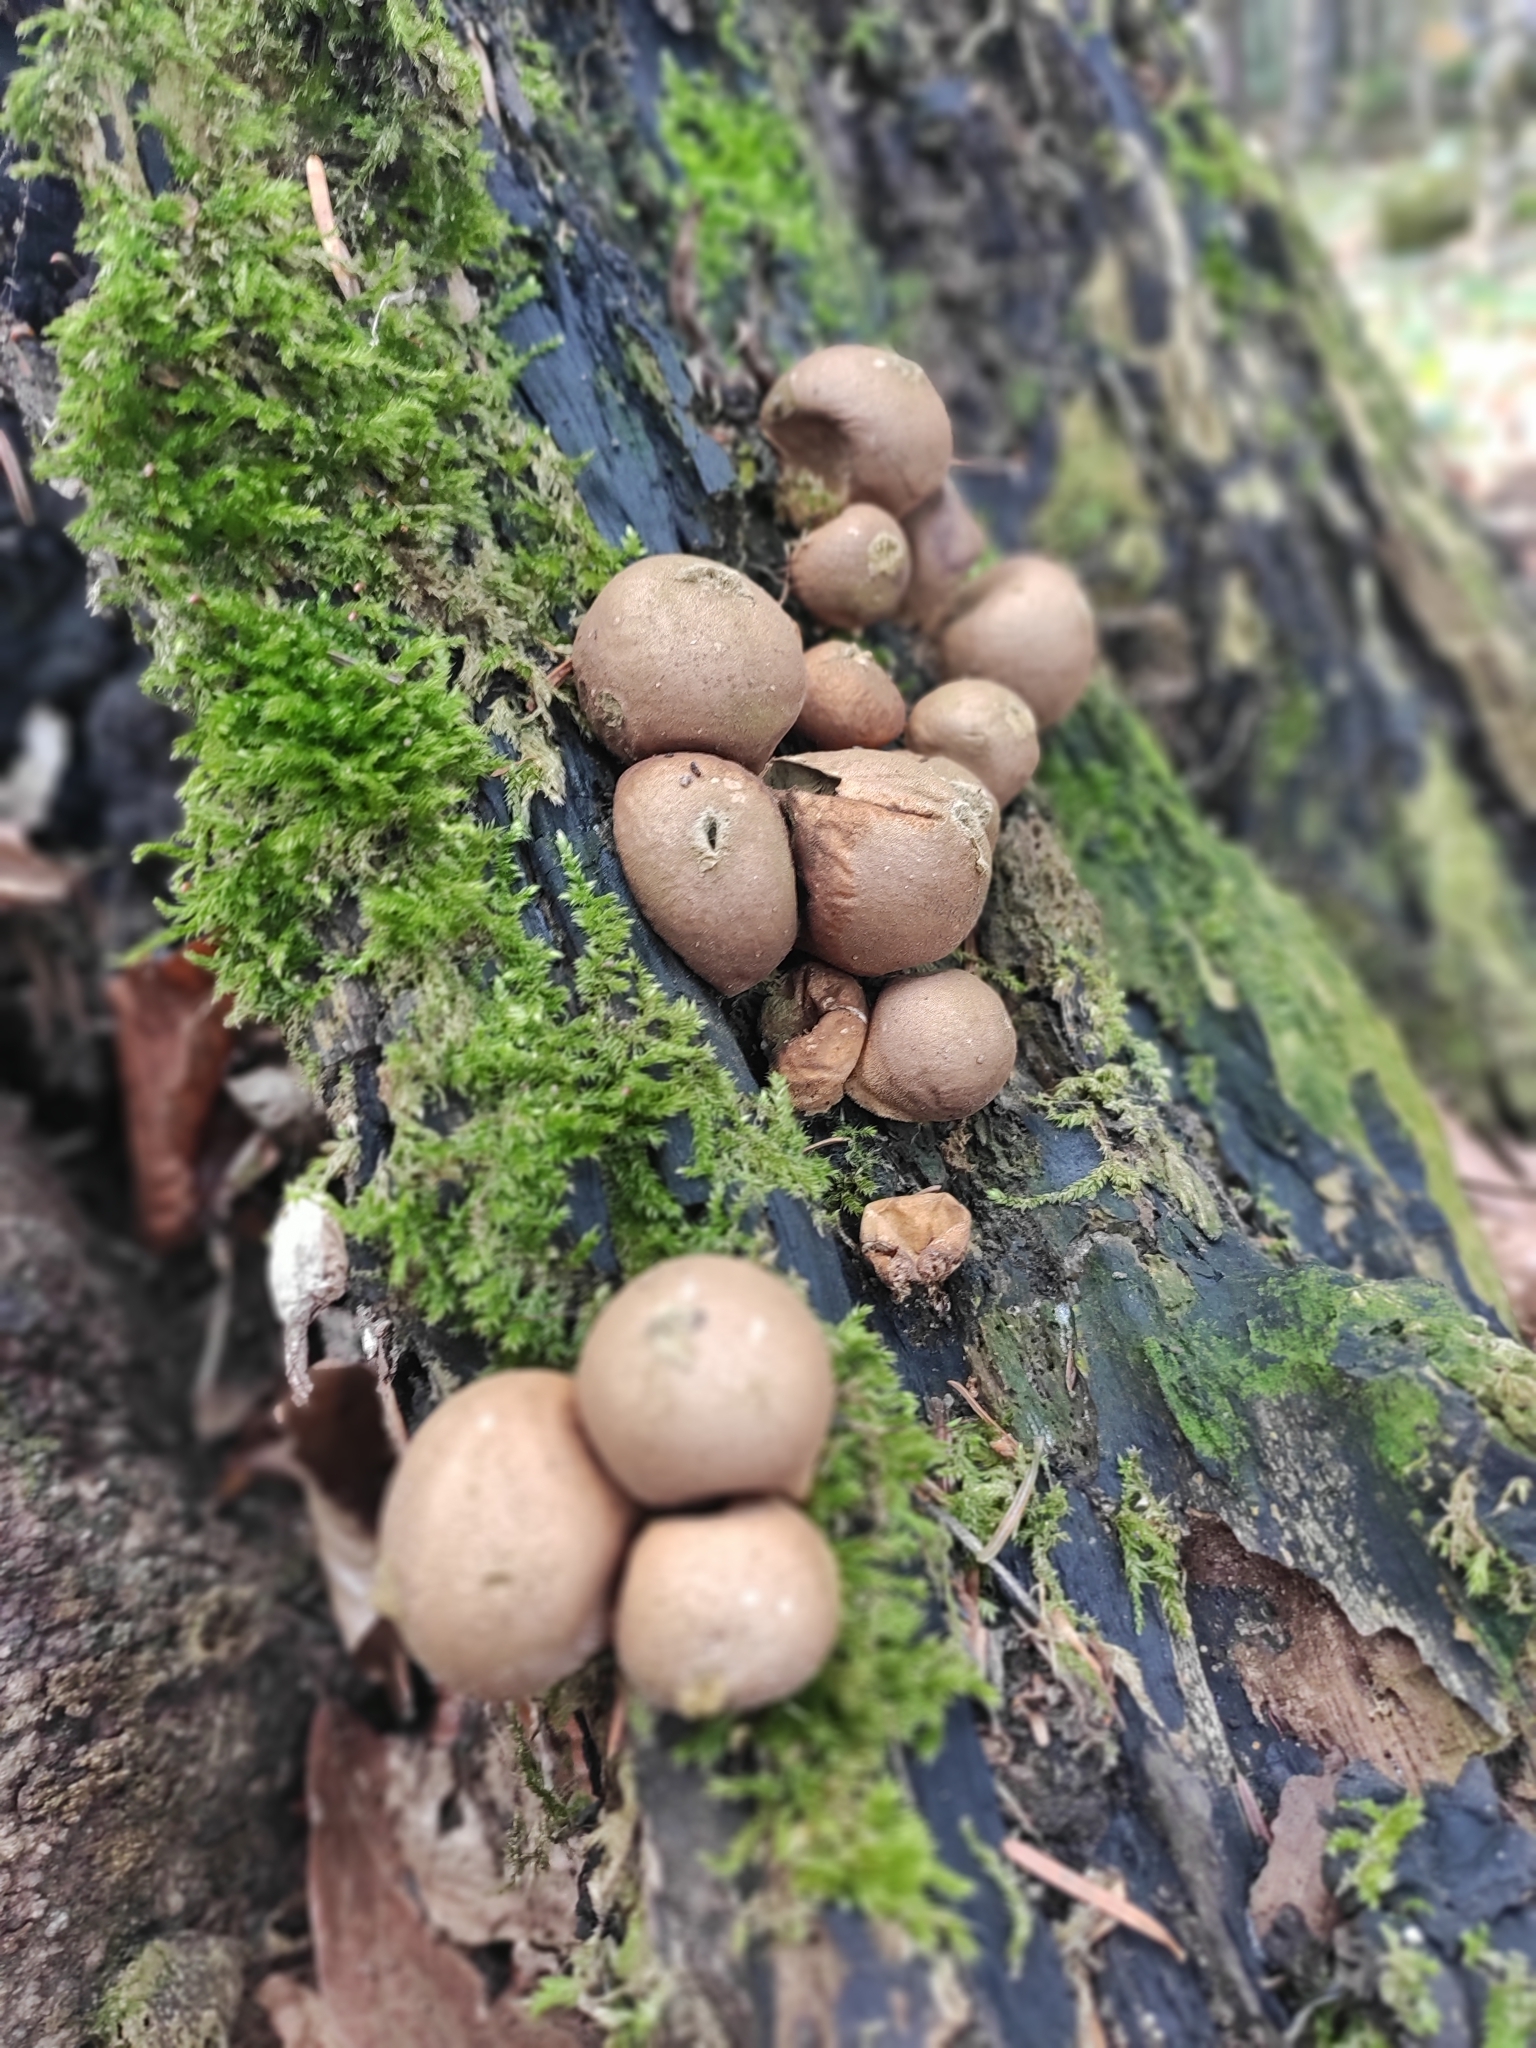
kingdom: Fungi
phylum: Basidiomycota
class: Agaricomycetes
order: Agaricales
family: Lycoperdaceae
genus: Apioperdon
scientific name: Apioperdon pyriforme
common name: Pear-shaped puffball
